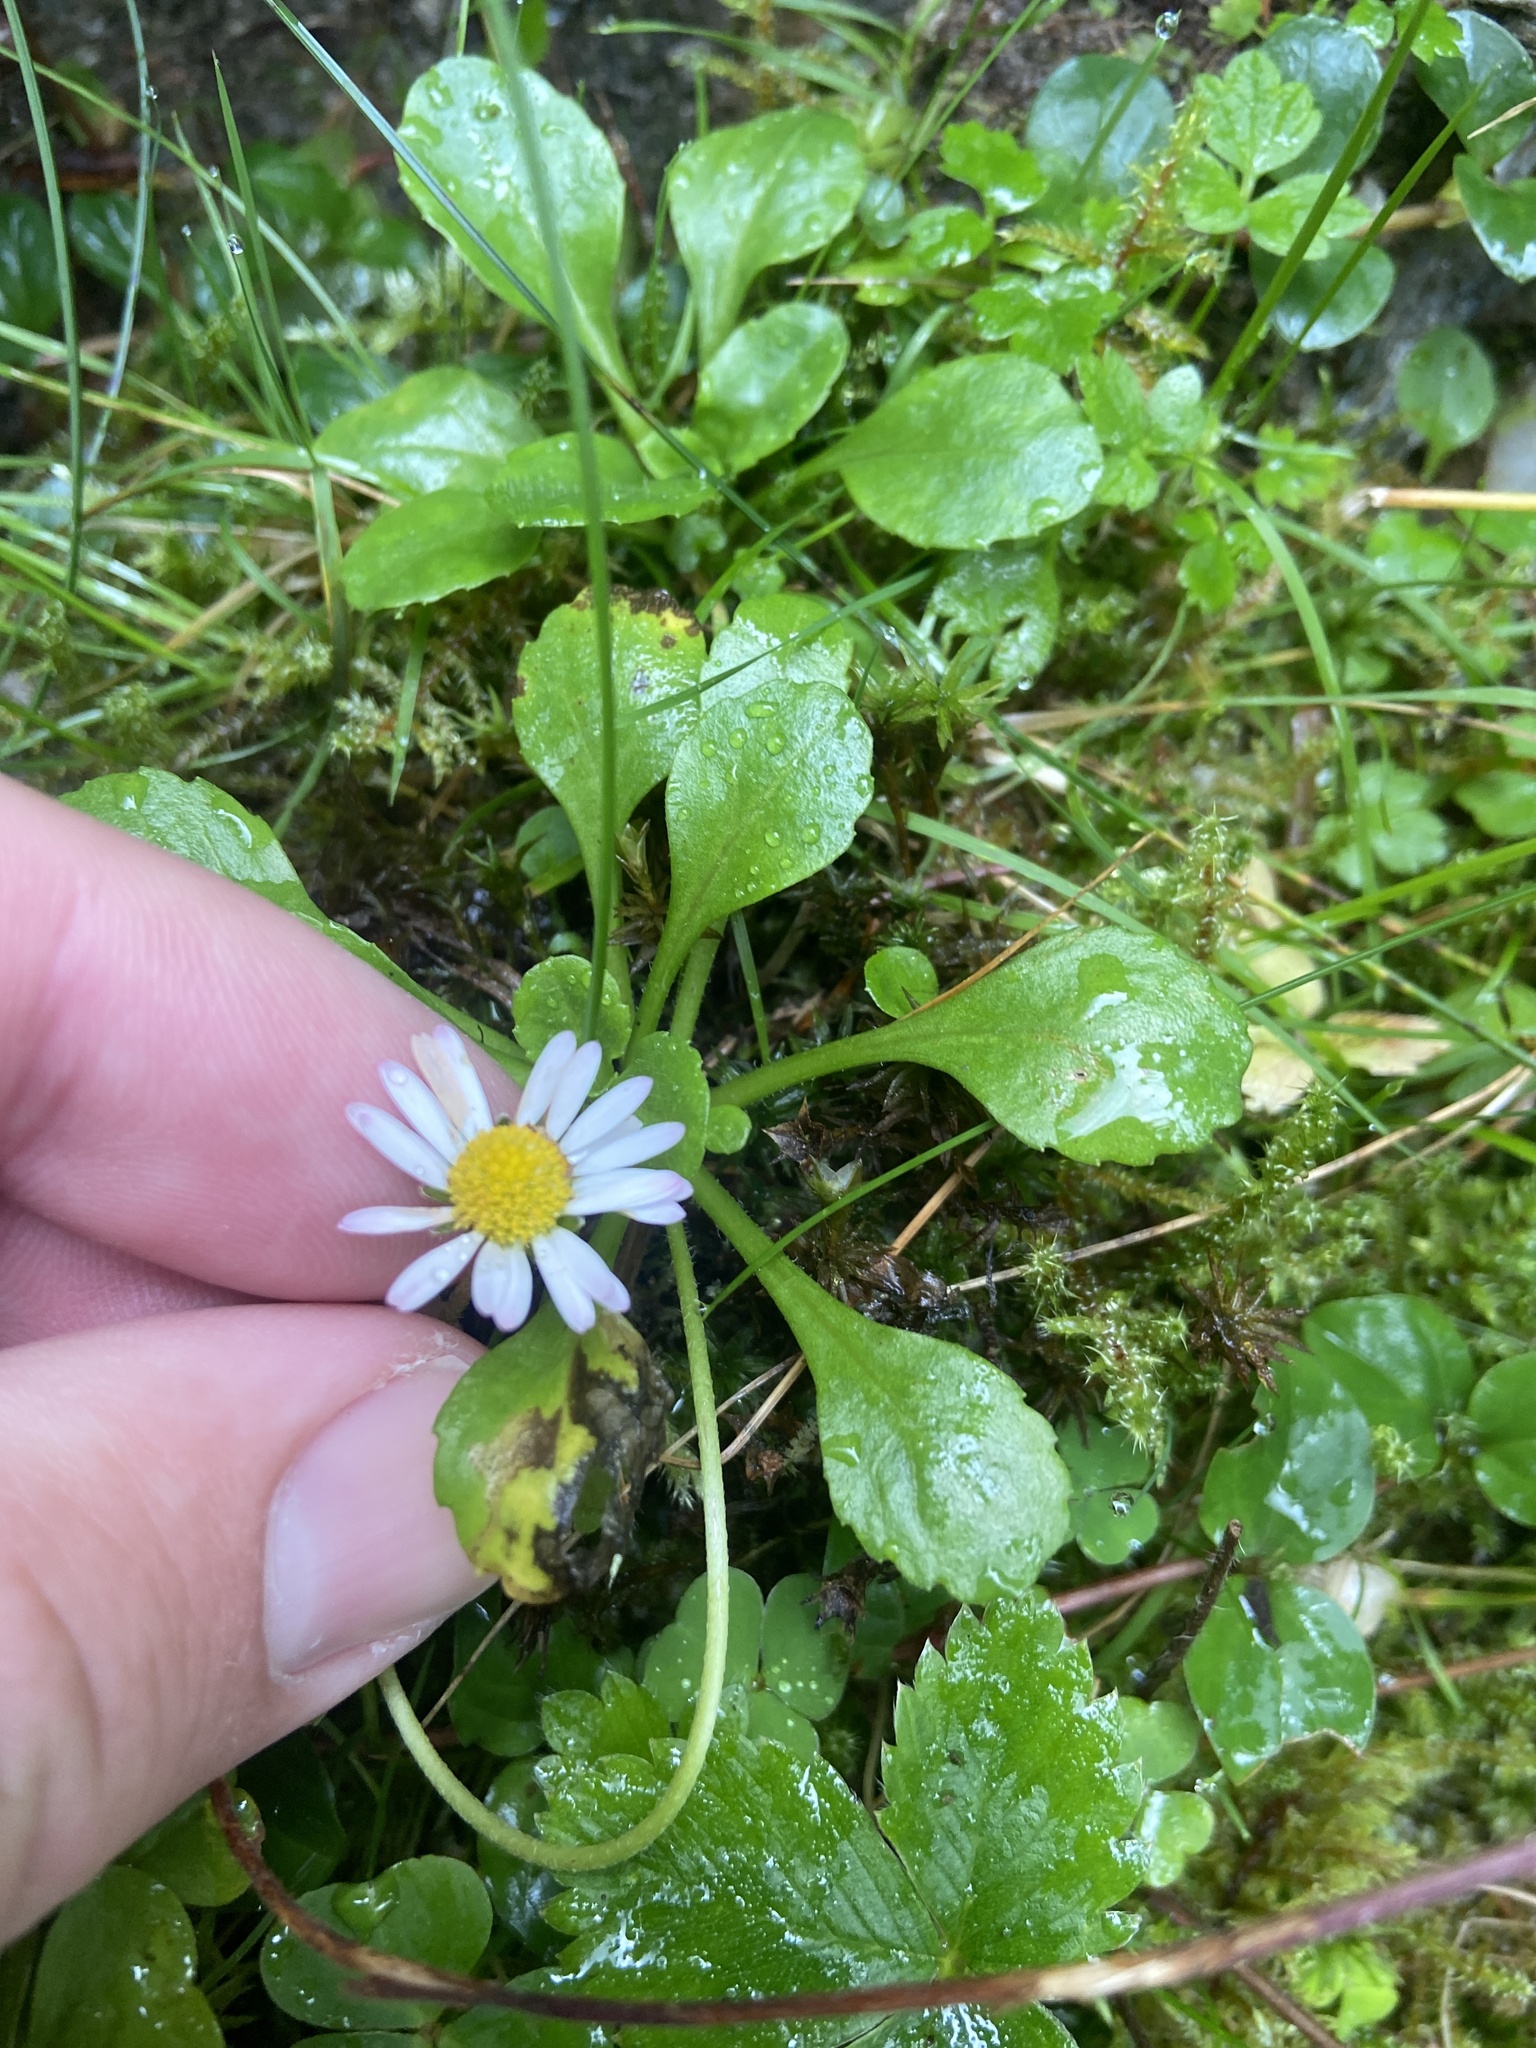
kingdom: Plantae
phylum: Tracheophyta
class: Magnoliopsida
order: Asterales
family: Asteraceae
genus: Bellis
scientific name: Bellis perennis
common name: Lawndaisy
